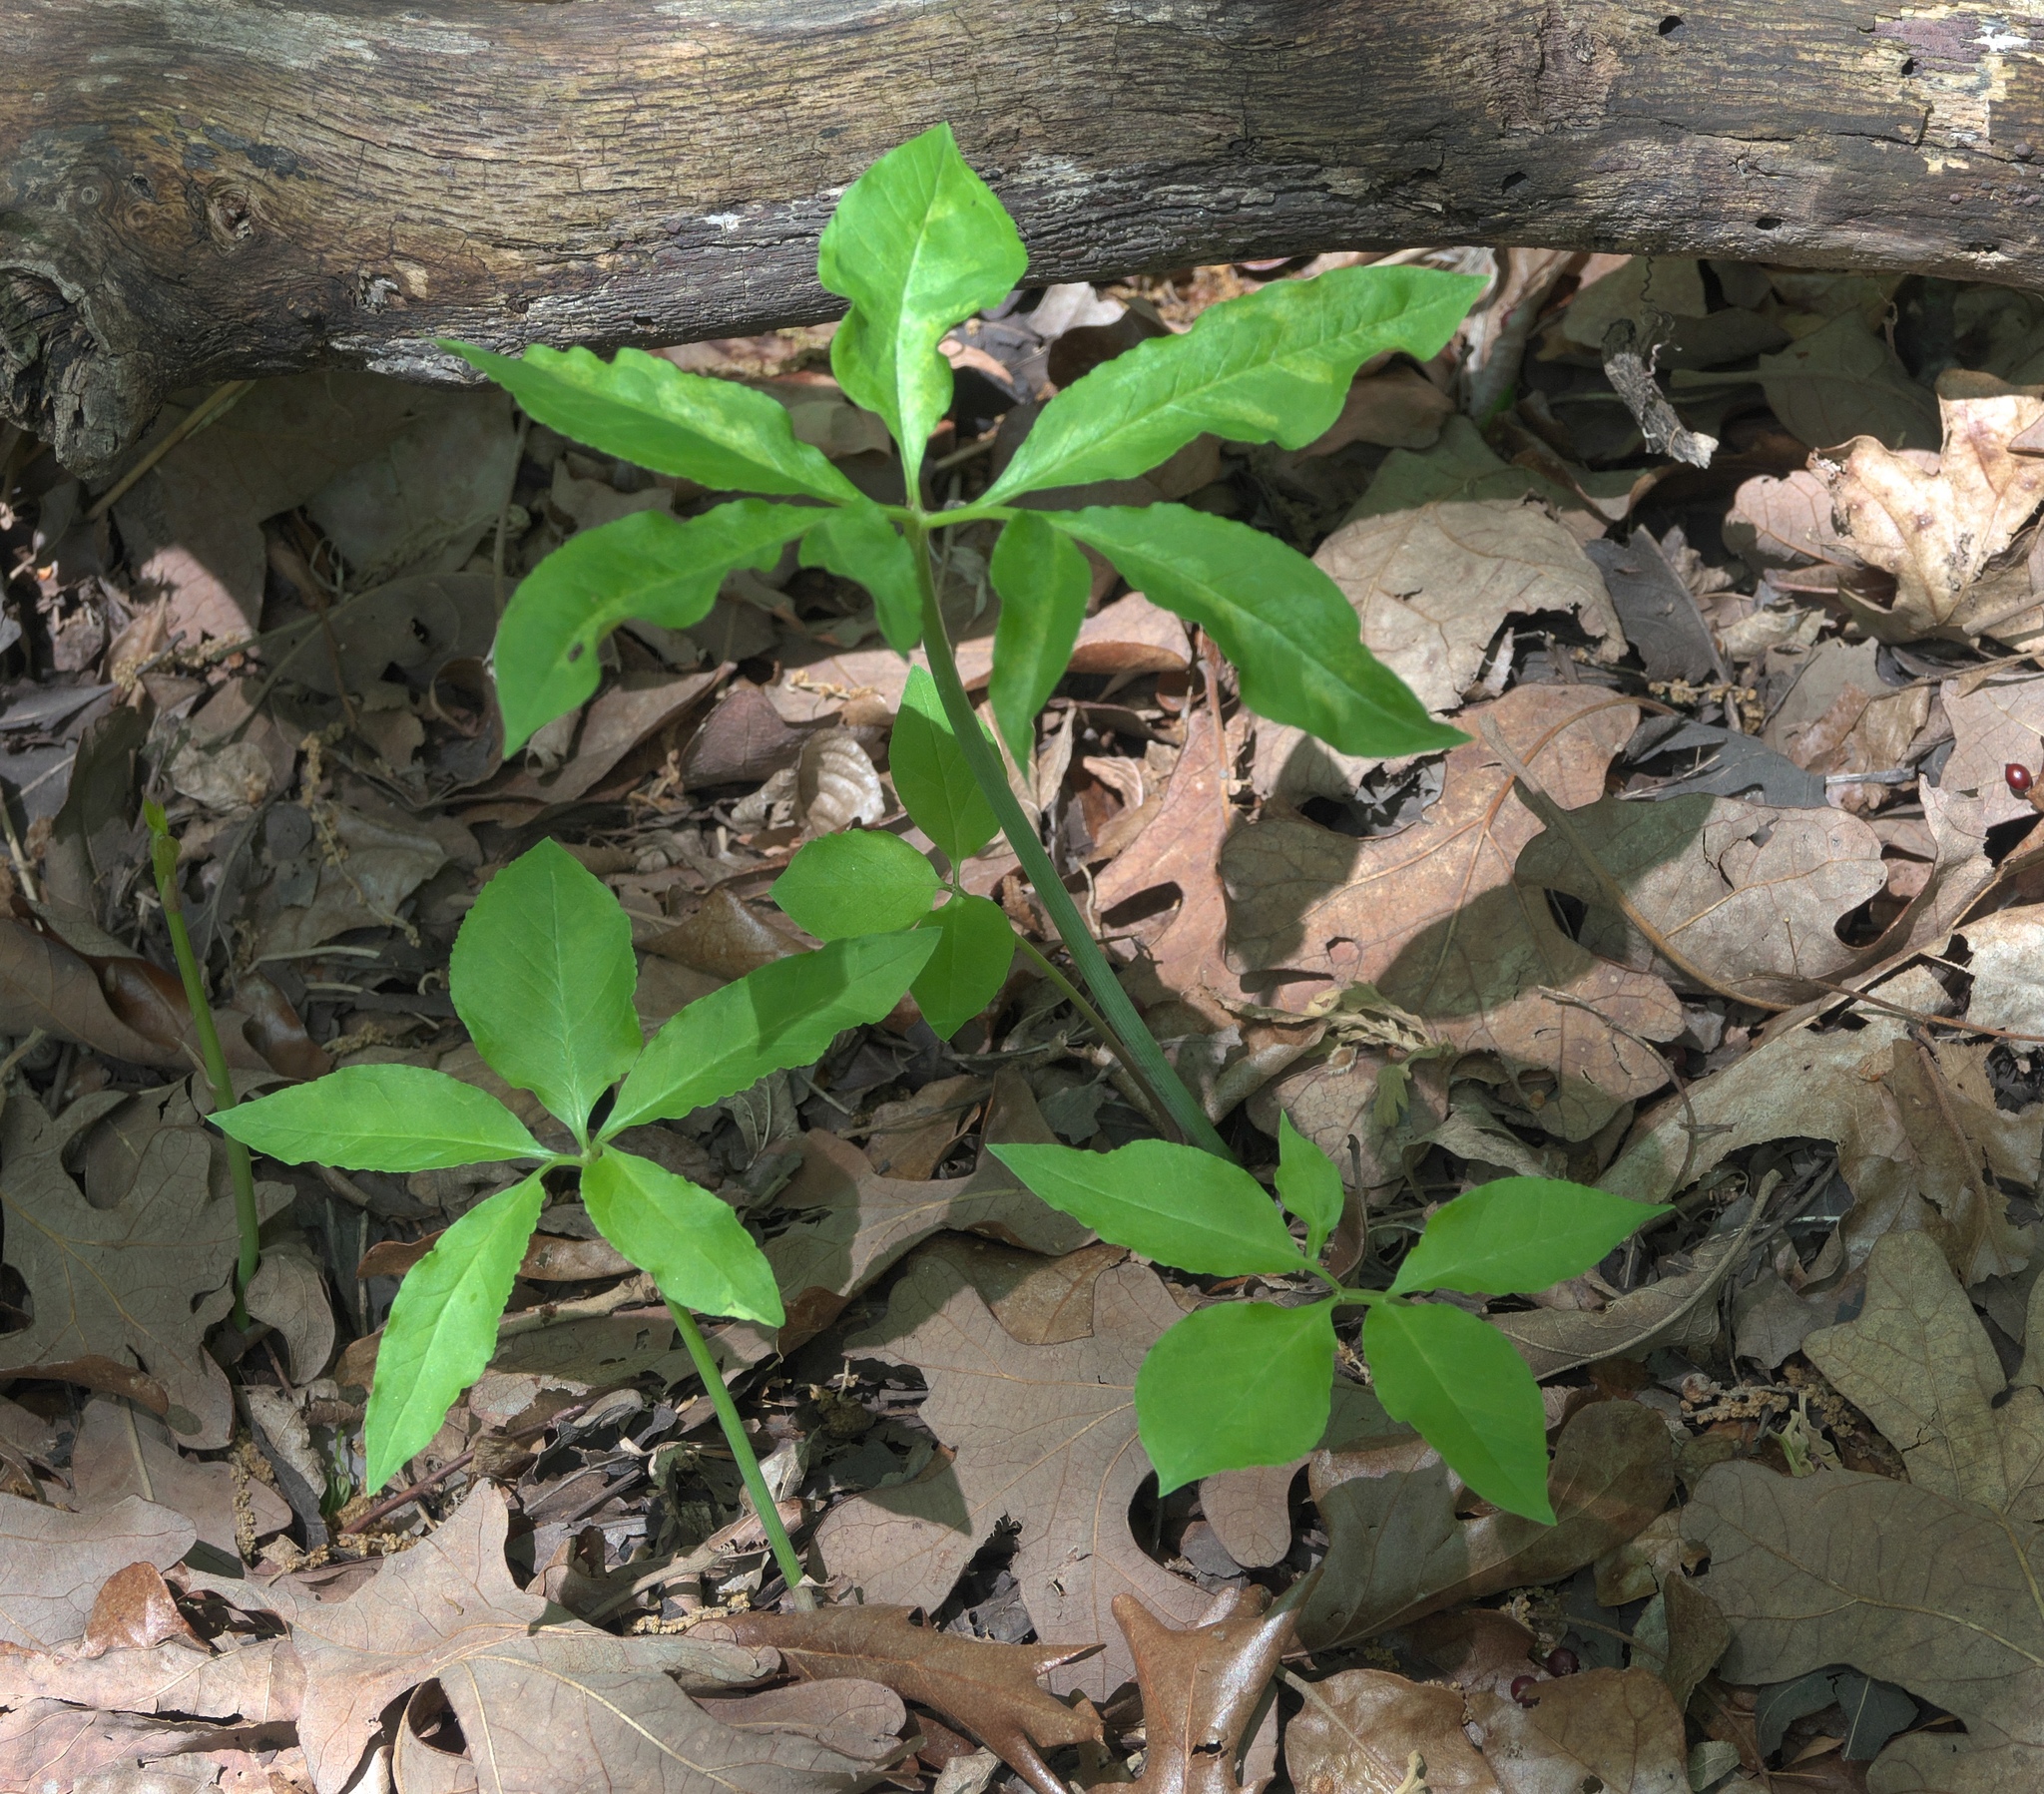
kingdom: Plantae
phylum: Tracheophyta
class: Liliopsida
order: Alismatales
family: Araceae
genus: Arisaema
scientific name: Arisaema dracontium
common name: Dragon-arum
